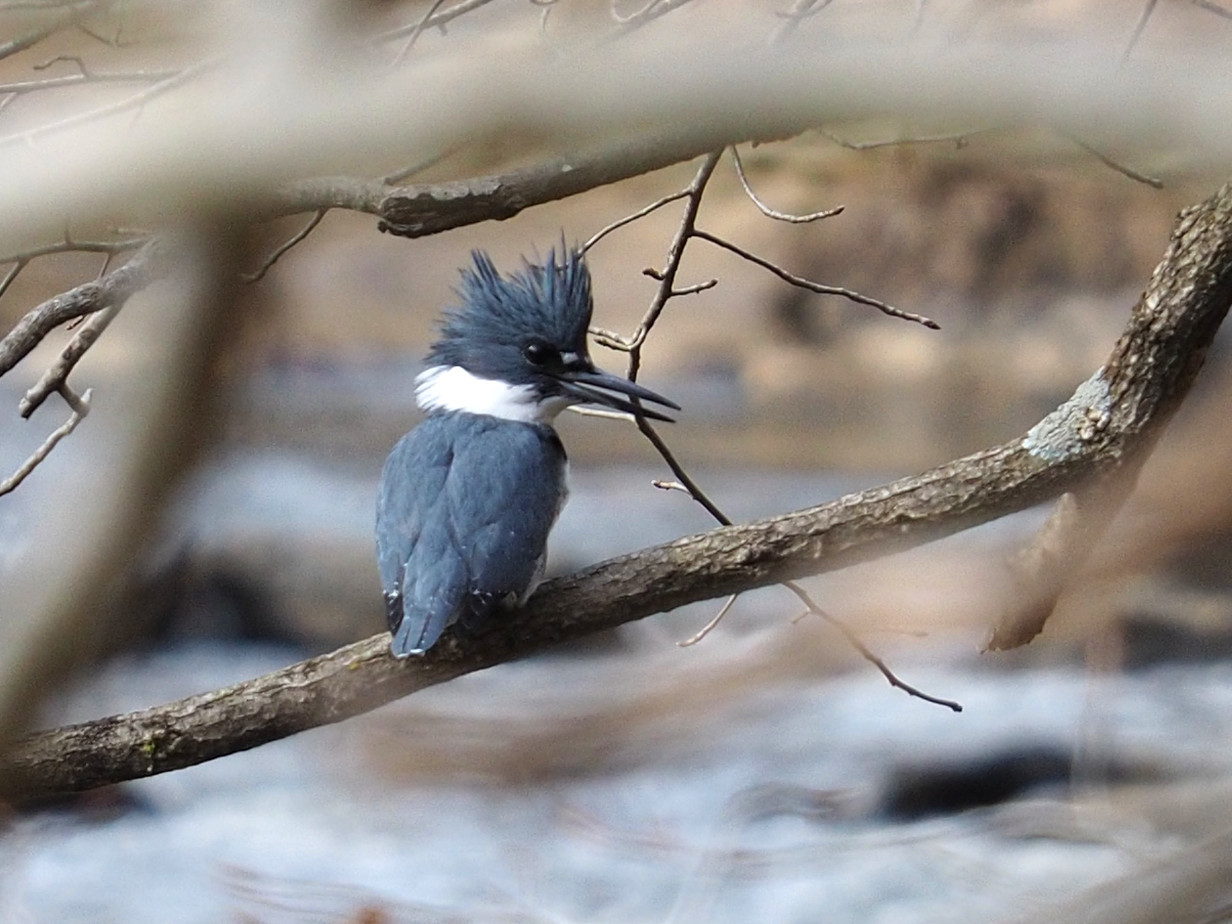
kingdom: Animalia
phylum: Chordata
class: Aves
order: Coraciiformes
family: Alcedinidae
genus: Megaceryle
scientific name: Megaceryle alcyon
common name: Belted kingfisher
